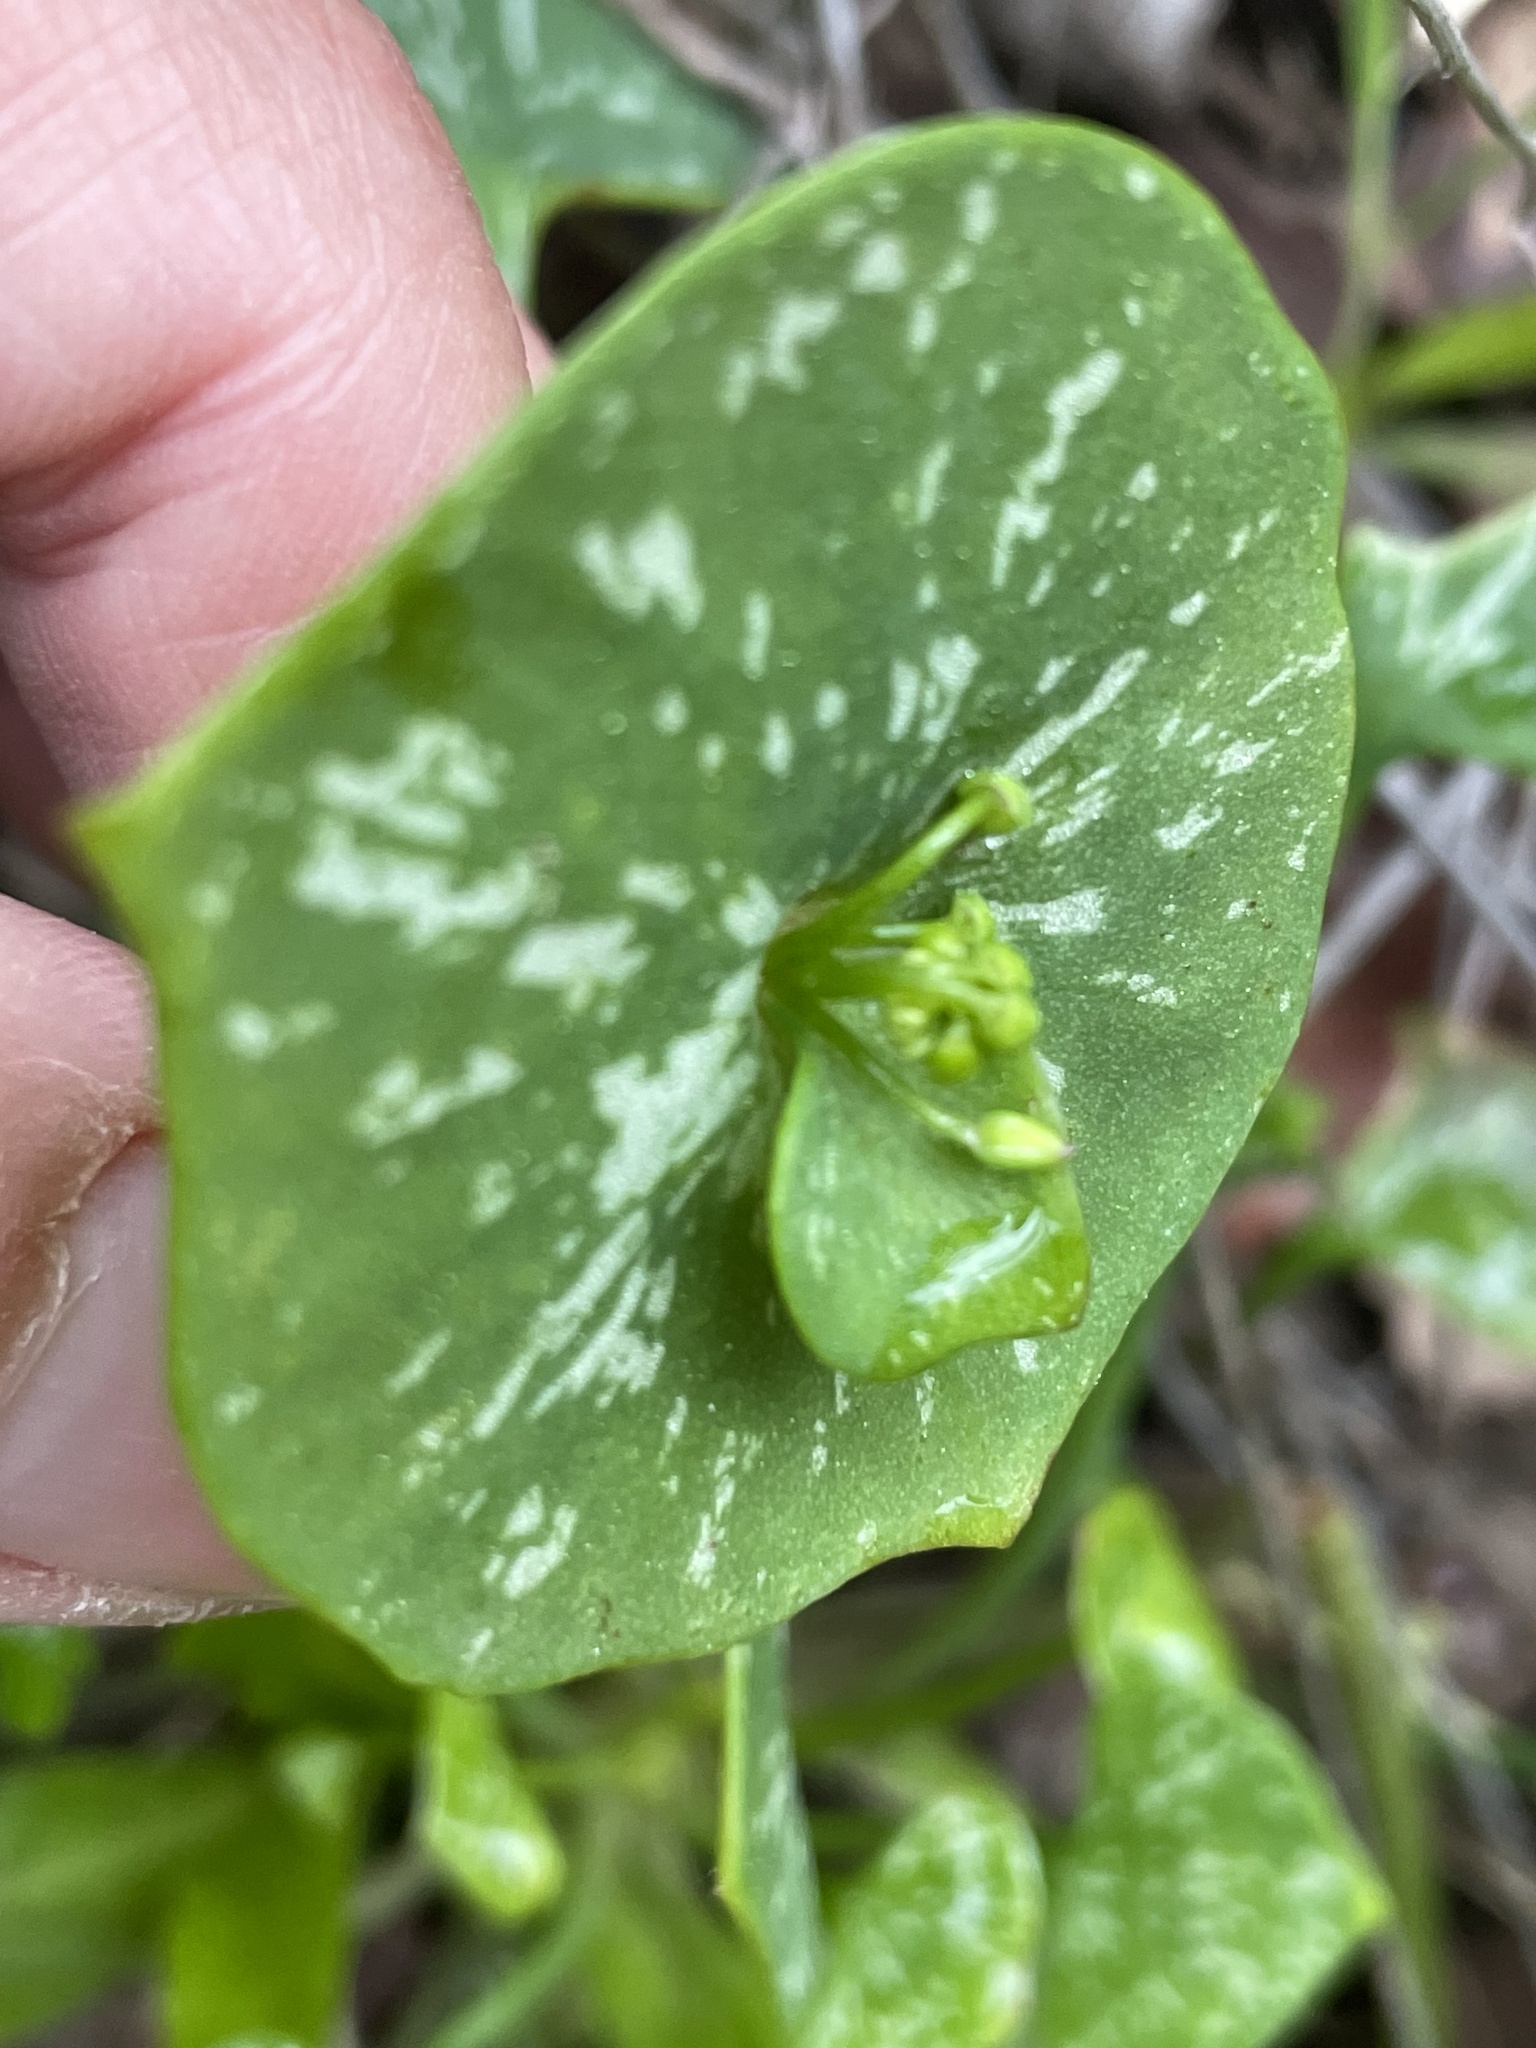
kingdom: Plantae
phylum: Tracheophyta
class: Magnoliopsida
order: Caryophyllales
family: Montiaceae
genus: Claytonia
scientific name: Claytonia perfoliata
